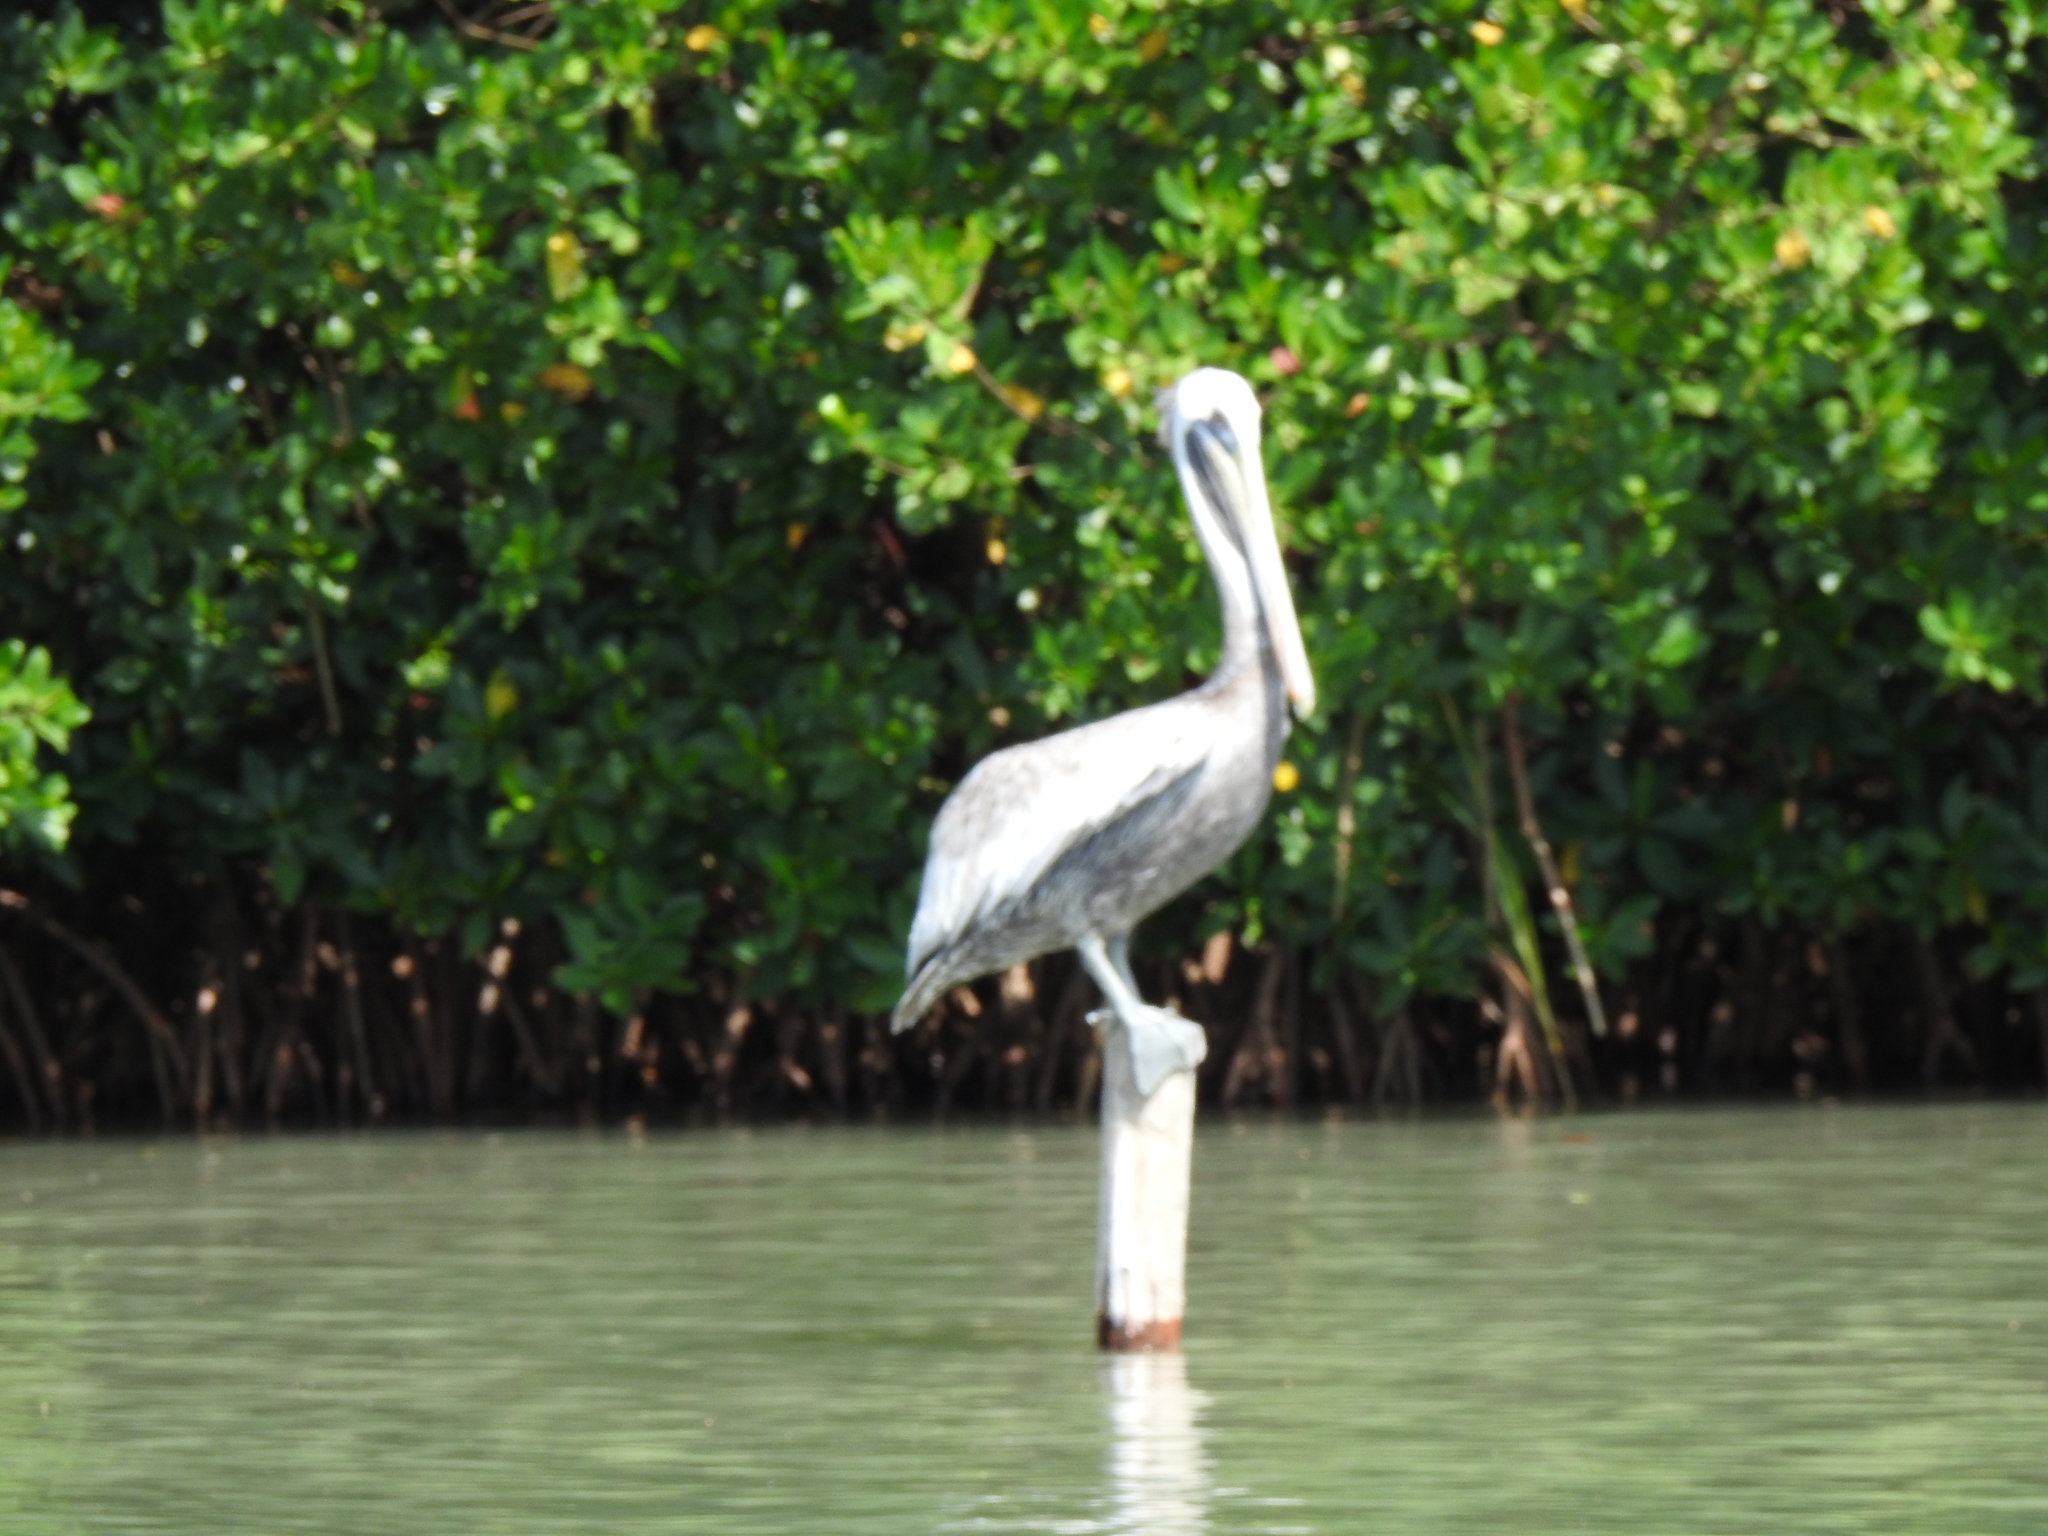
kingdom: Animalia
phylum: Chordata
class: Aves
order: Pelecaniformes
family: Pelecanidae
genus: Pelecanus
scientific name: Pelecanus occidentalis
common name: Brown pelican
